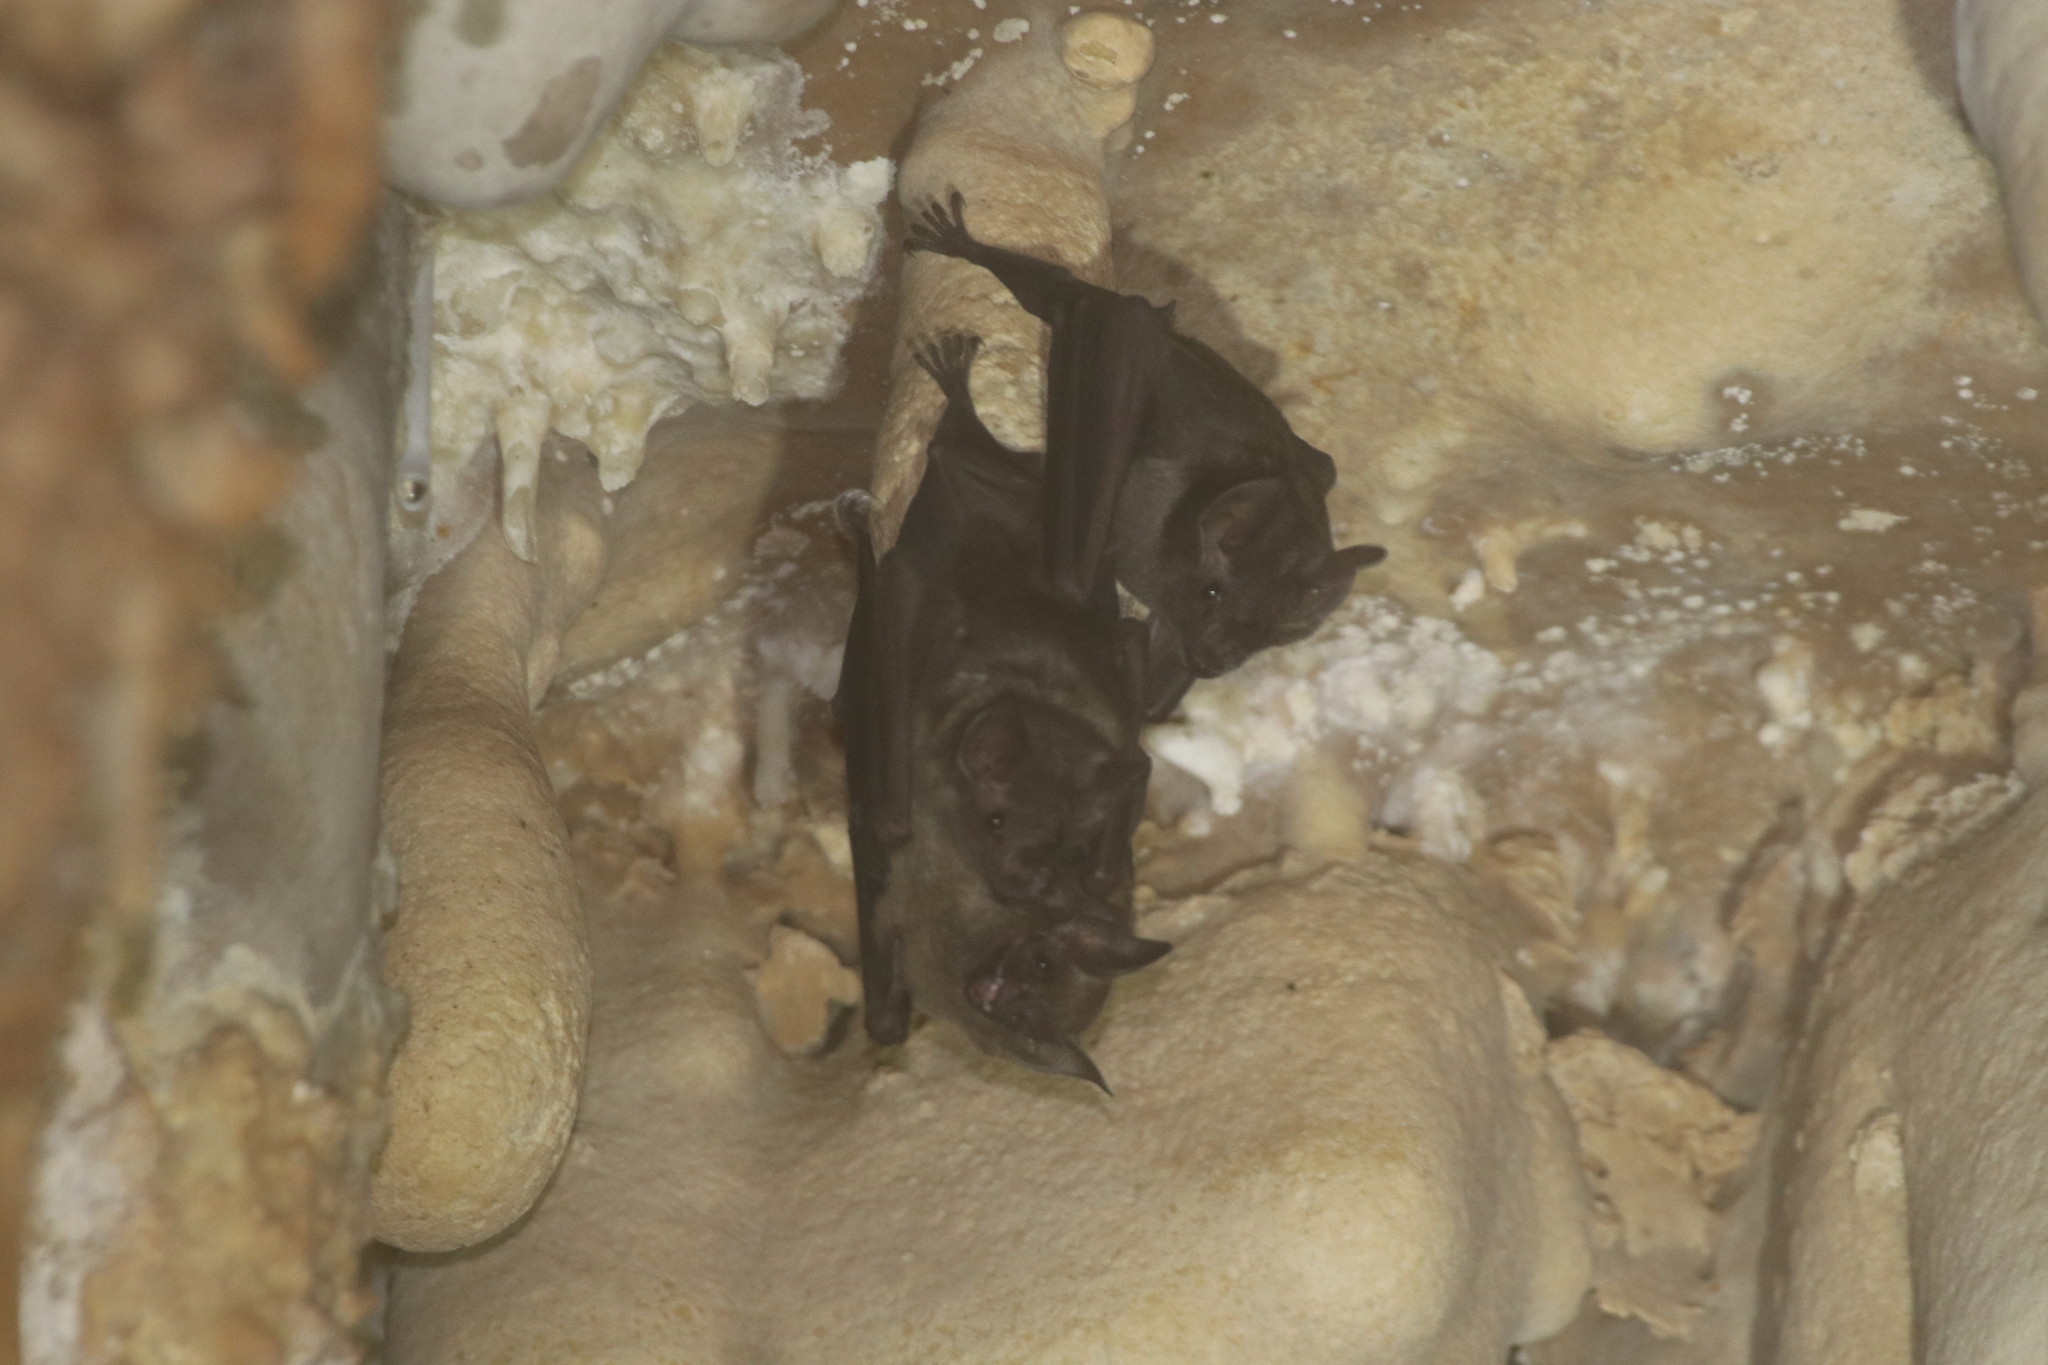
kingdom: Animalia
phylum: Chordata
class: Mammalia
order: Chiroptera
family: Phyllostomidae
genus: Carollia
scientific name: Carollia perspicillata
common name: Seba's short-tailed bat
